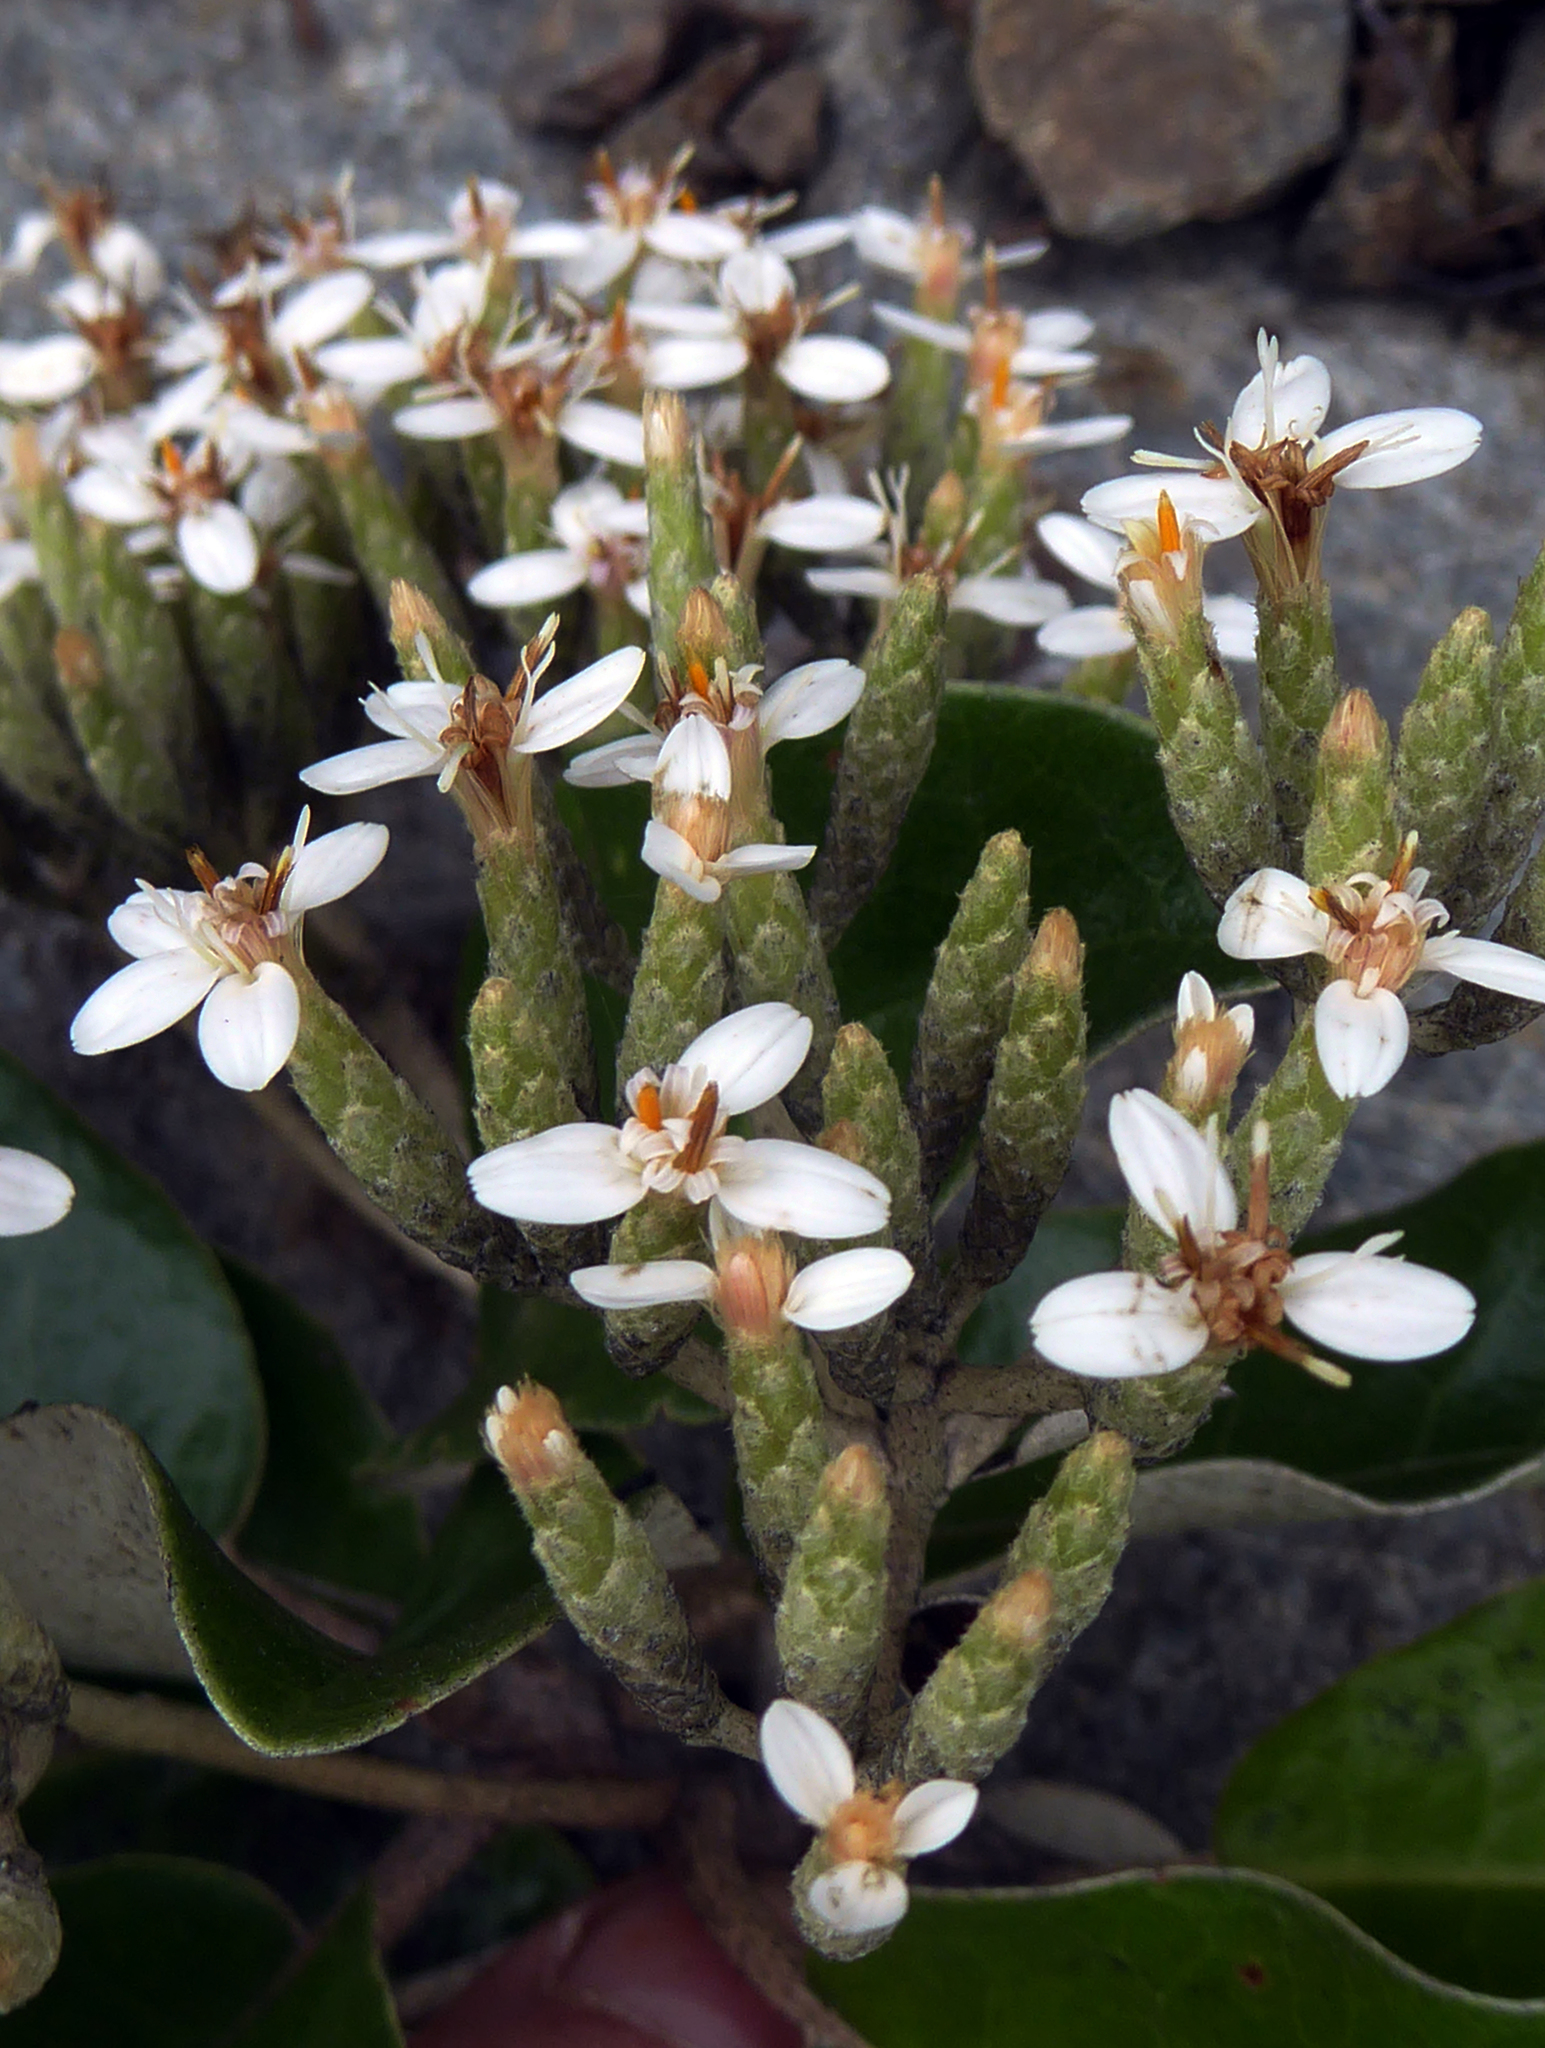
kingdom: Plantae
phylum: Tracheophyta
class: Magnoliopsida
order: Asterales
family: Asteraceae
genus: Olearia
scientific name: Olearia pachyphylla
